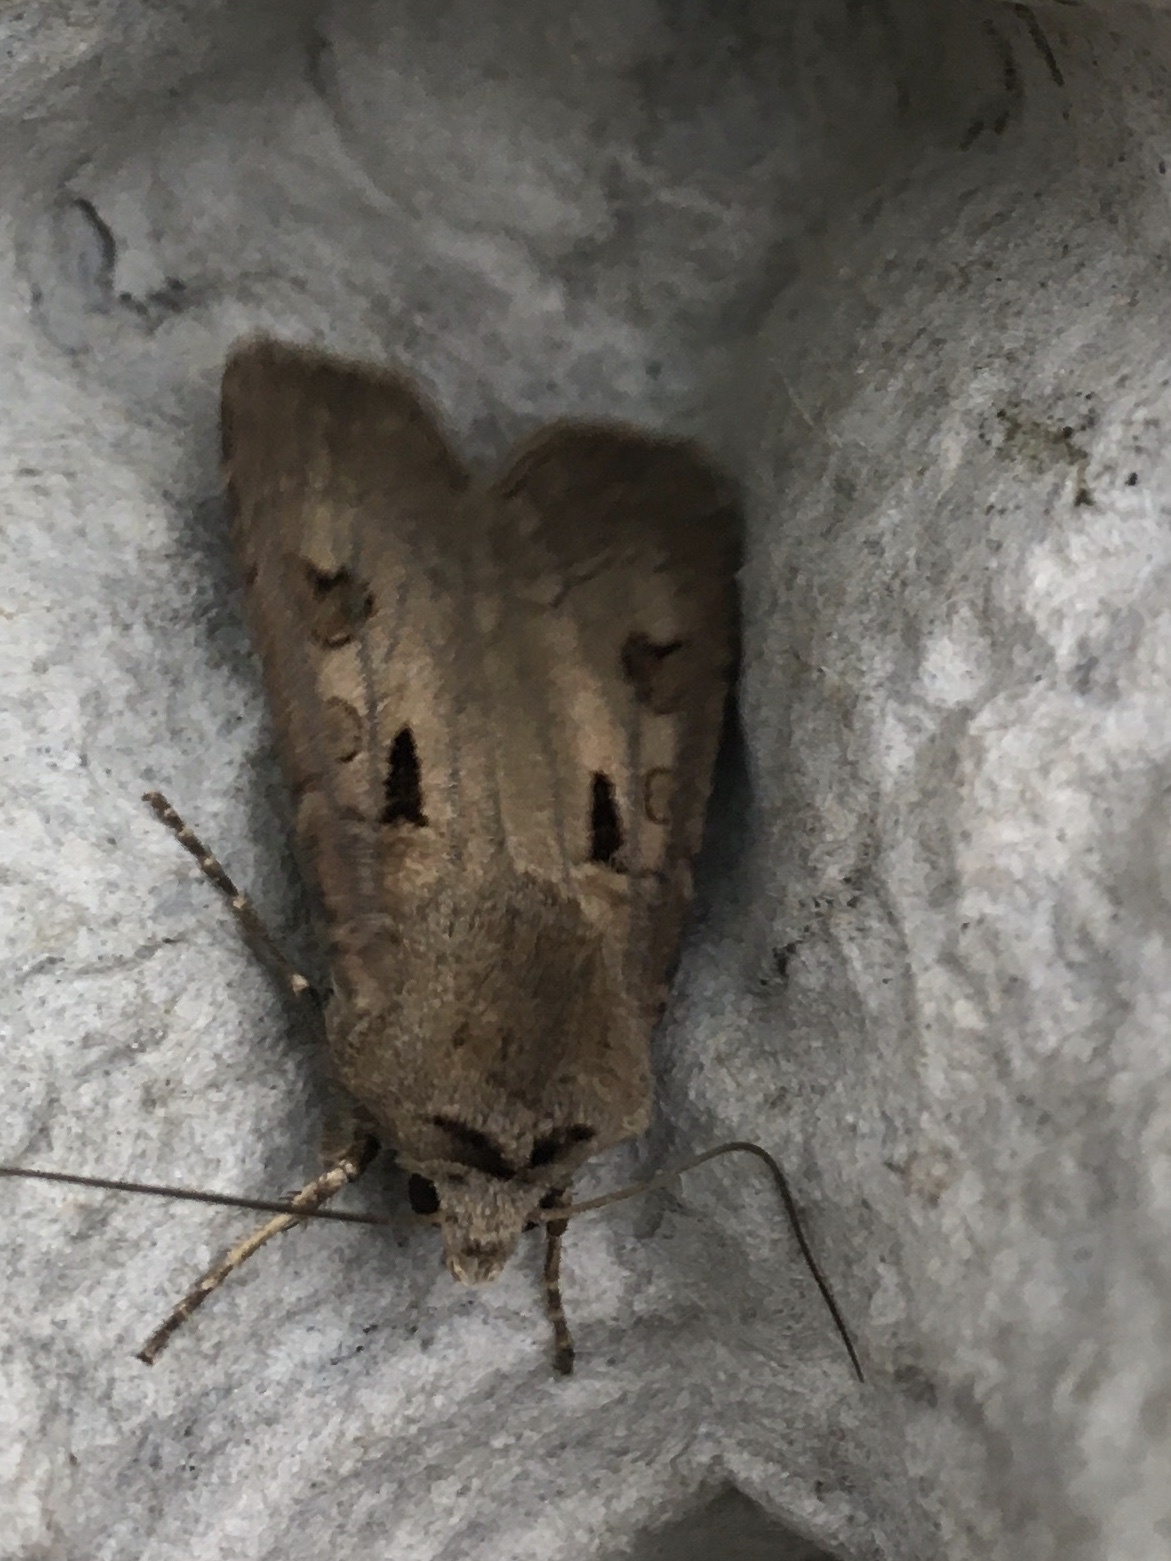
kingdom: Animalia
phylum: Arthropoda
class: Insecta
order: Lepidoptera
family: Noctuidae
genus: Agrotis
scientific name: Agrotis exclamationis
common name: Heart and dart
